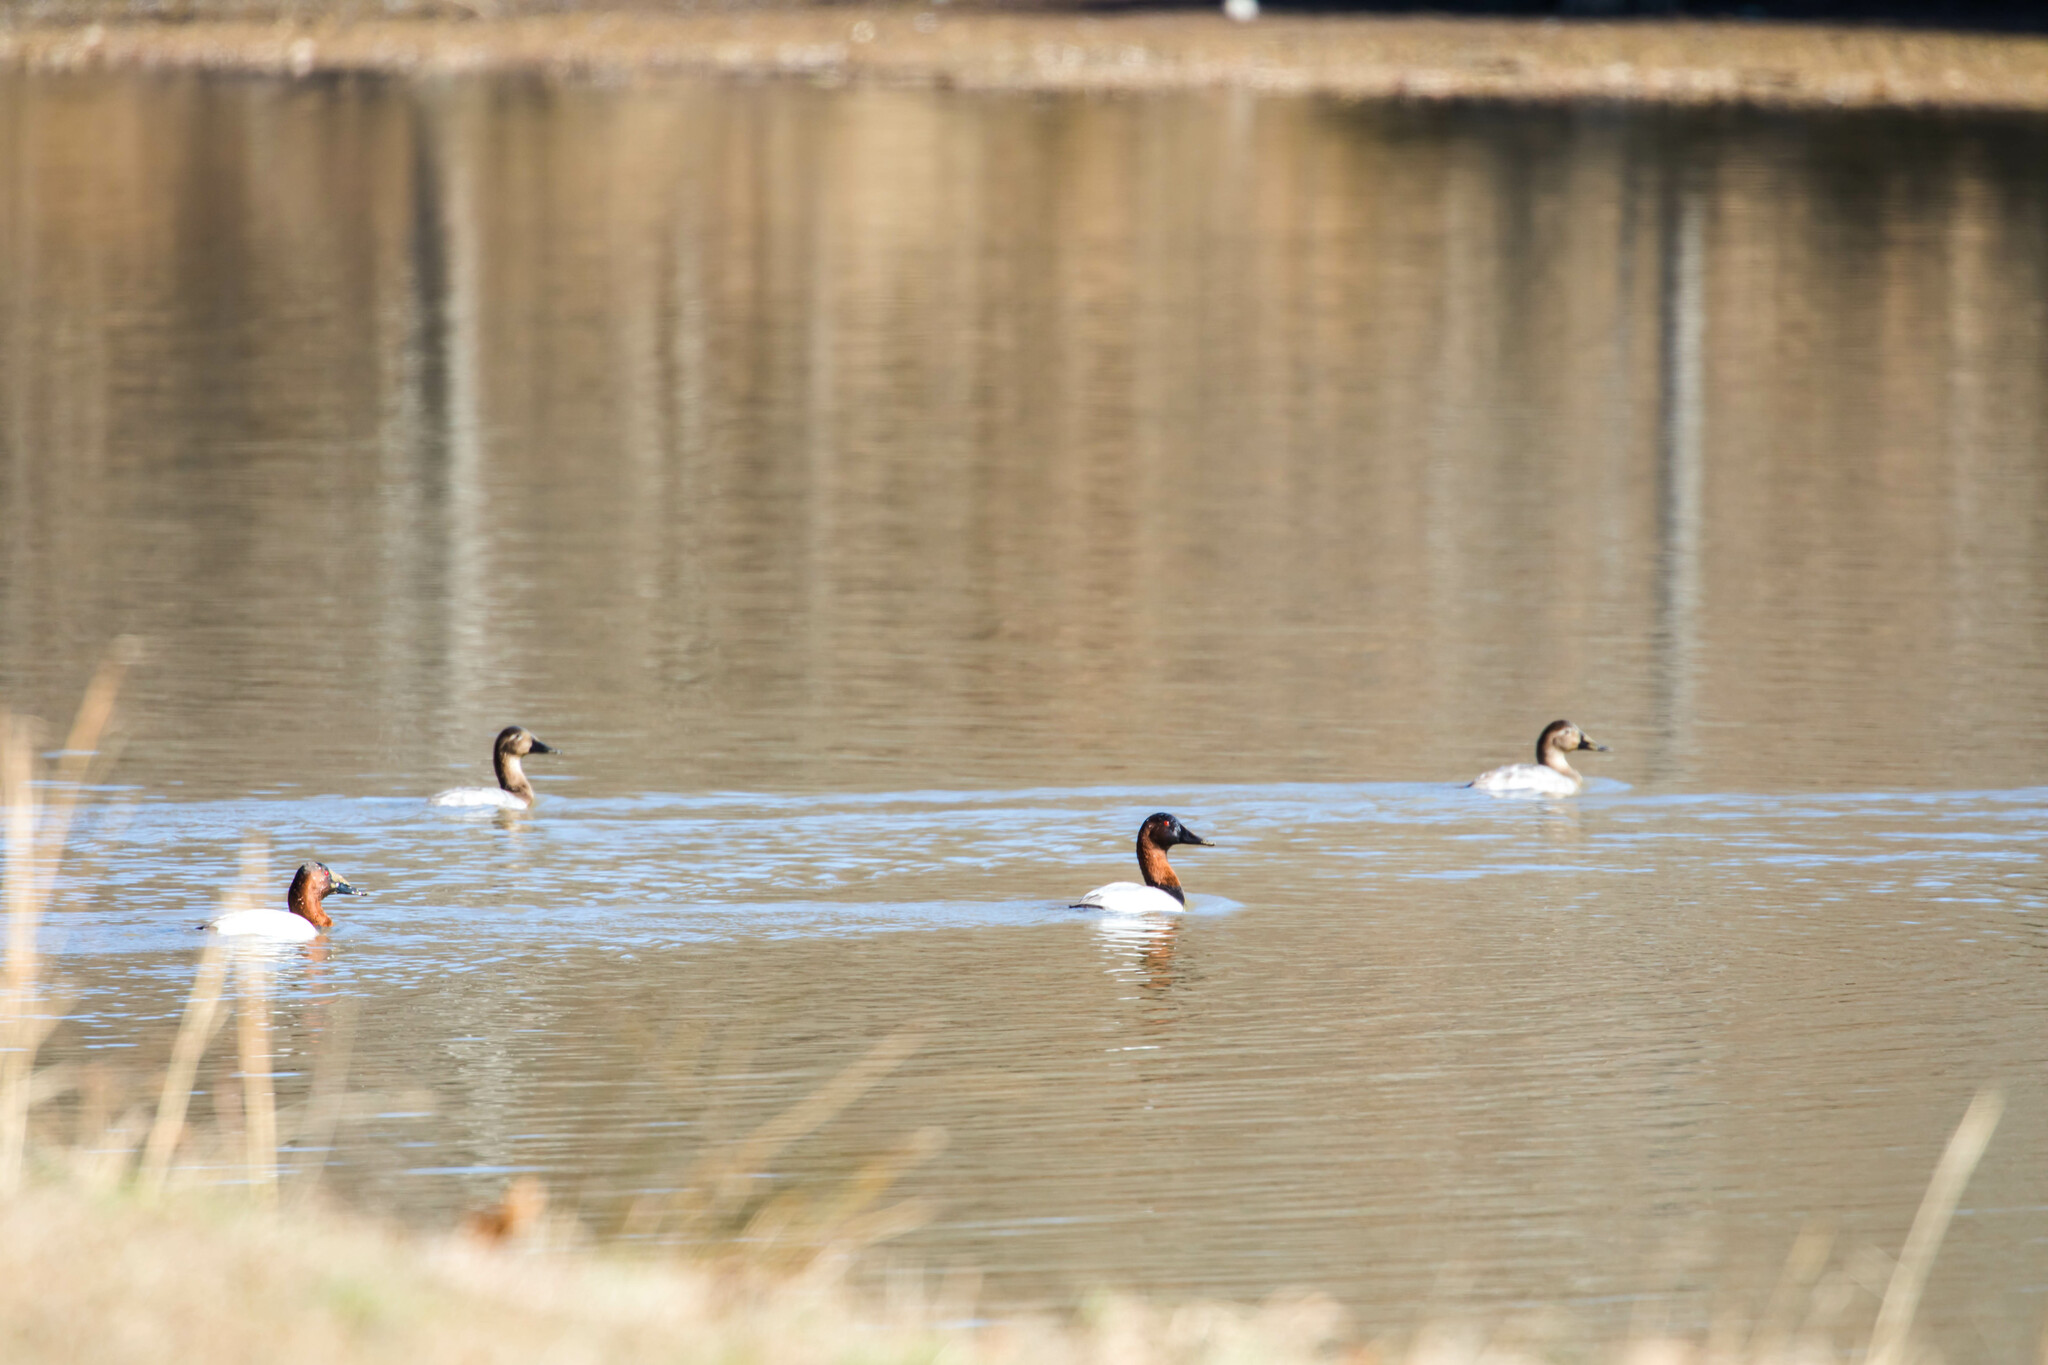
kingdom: Animalia
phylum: Chordata
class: Aves
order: Anseriformes
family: Anatidae
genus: Aythya
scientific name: Aythya valisineria
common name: Canvasback
